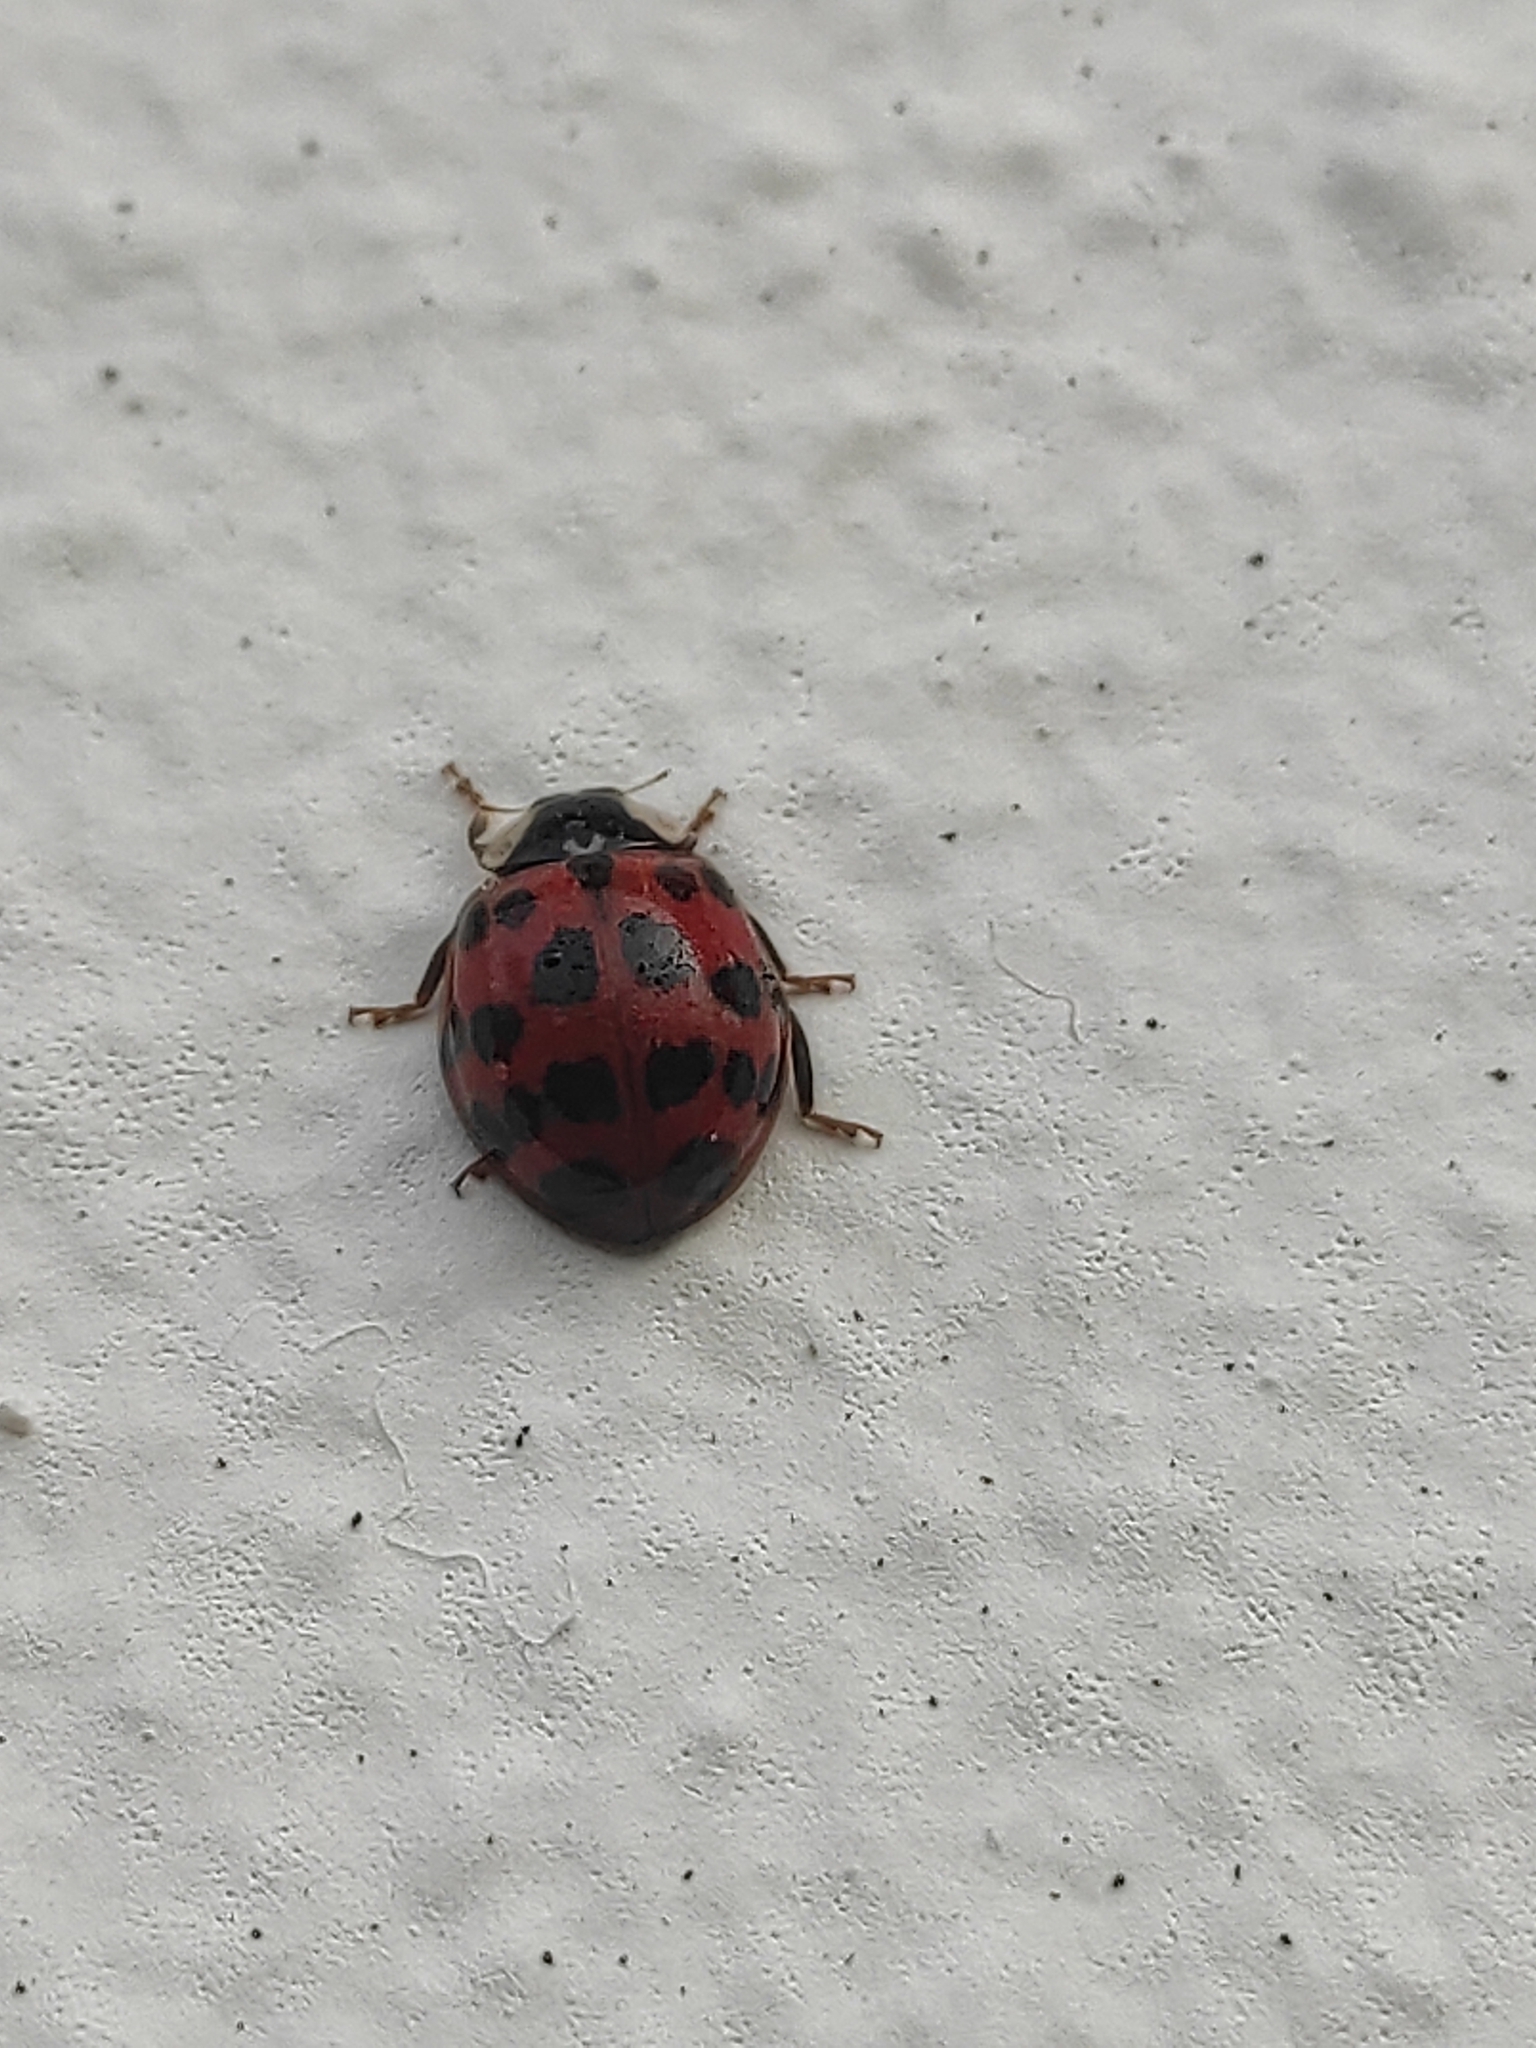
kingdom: Animalia
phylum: Arthropoda
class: Insecta
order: Coleoptera
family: Coccinellidae
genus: Harmonia
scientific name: Harmonia axyridis
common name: Harlequin ladybird
